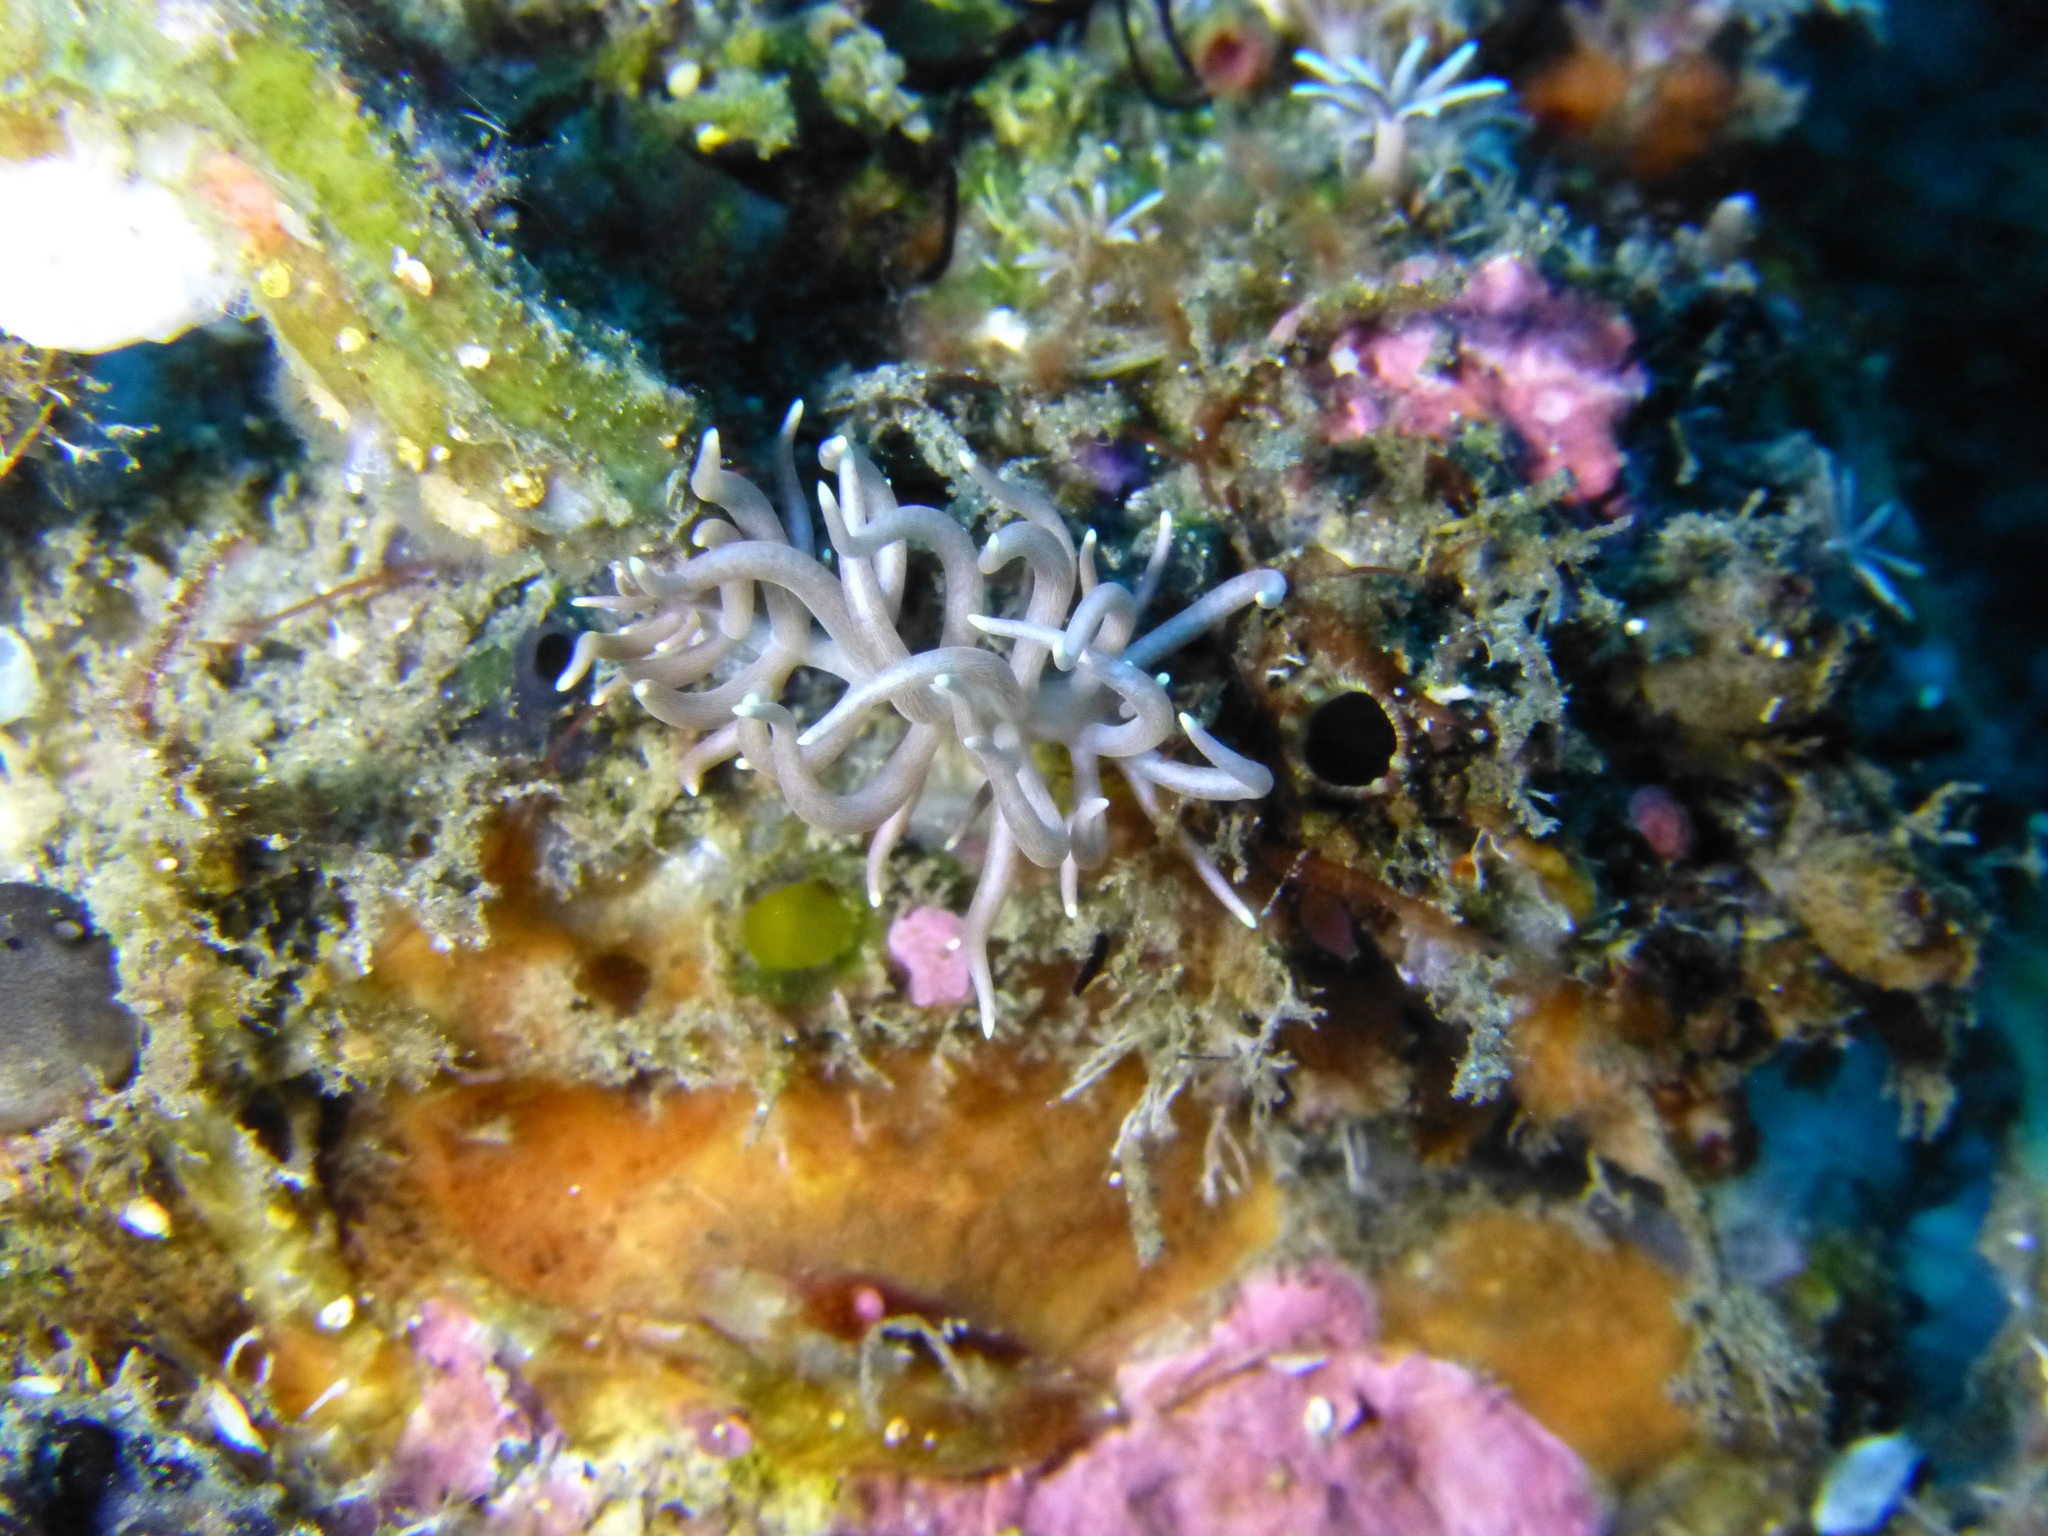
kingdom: Animalia
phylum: Mollusca
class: Gastropoda
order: Nudibranchia
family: Myrrhinidae
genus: Phyllodesmium
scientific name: Phyllodesmium briareum
